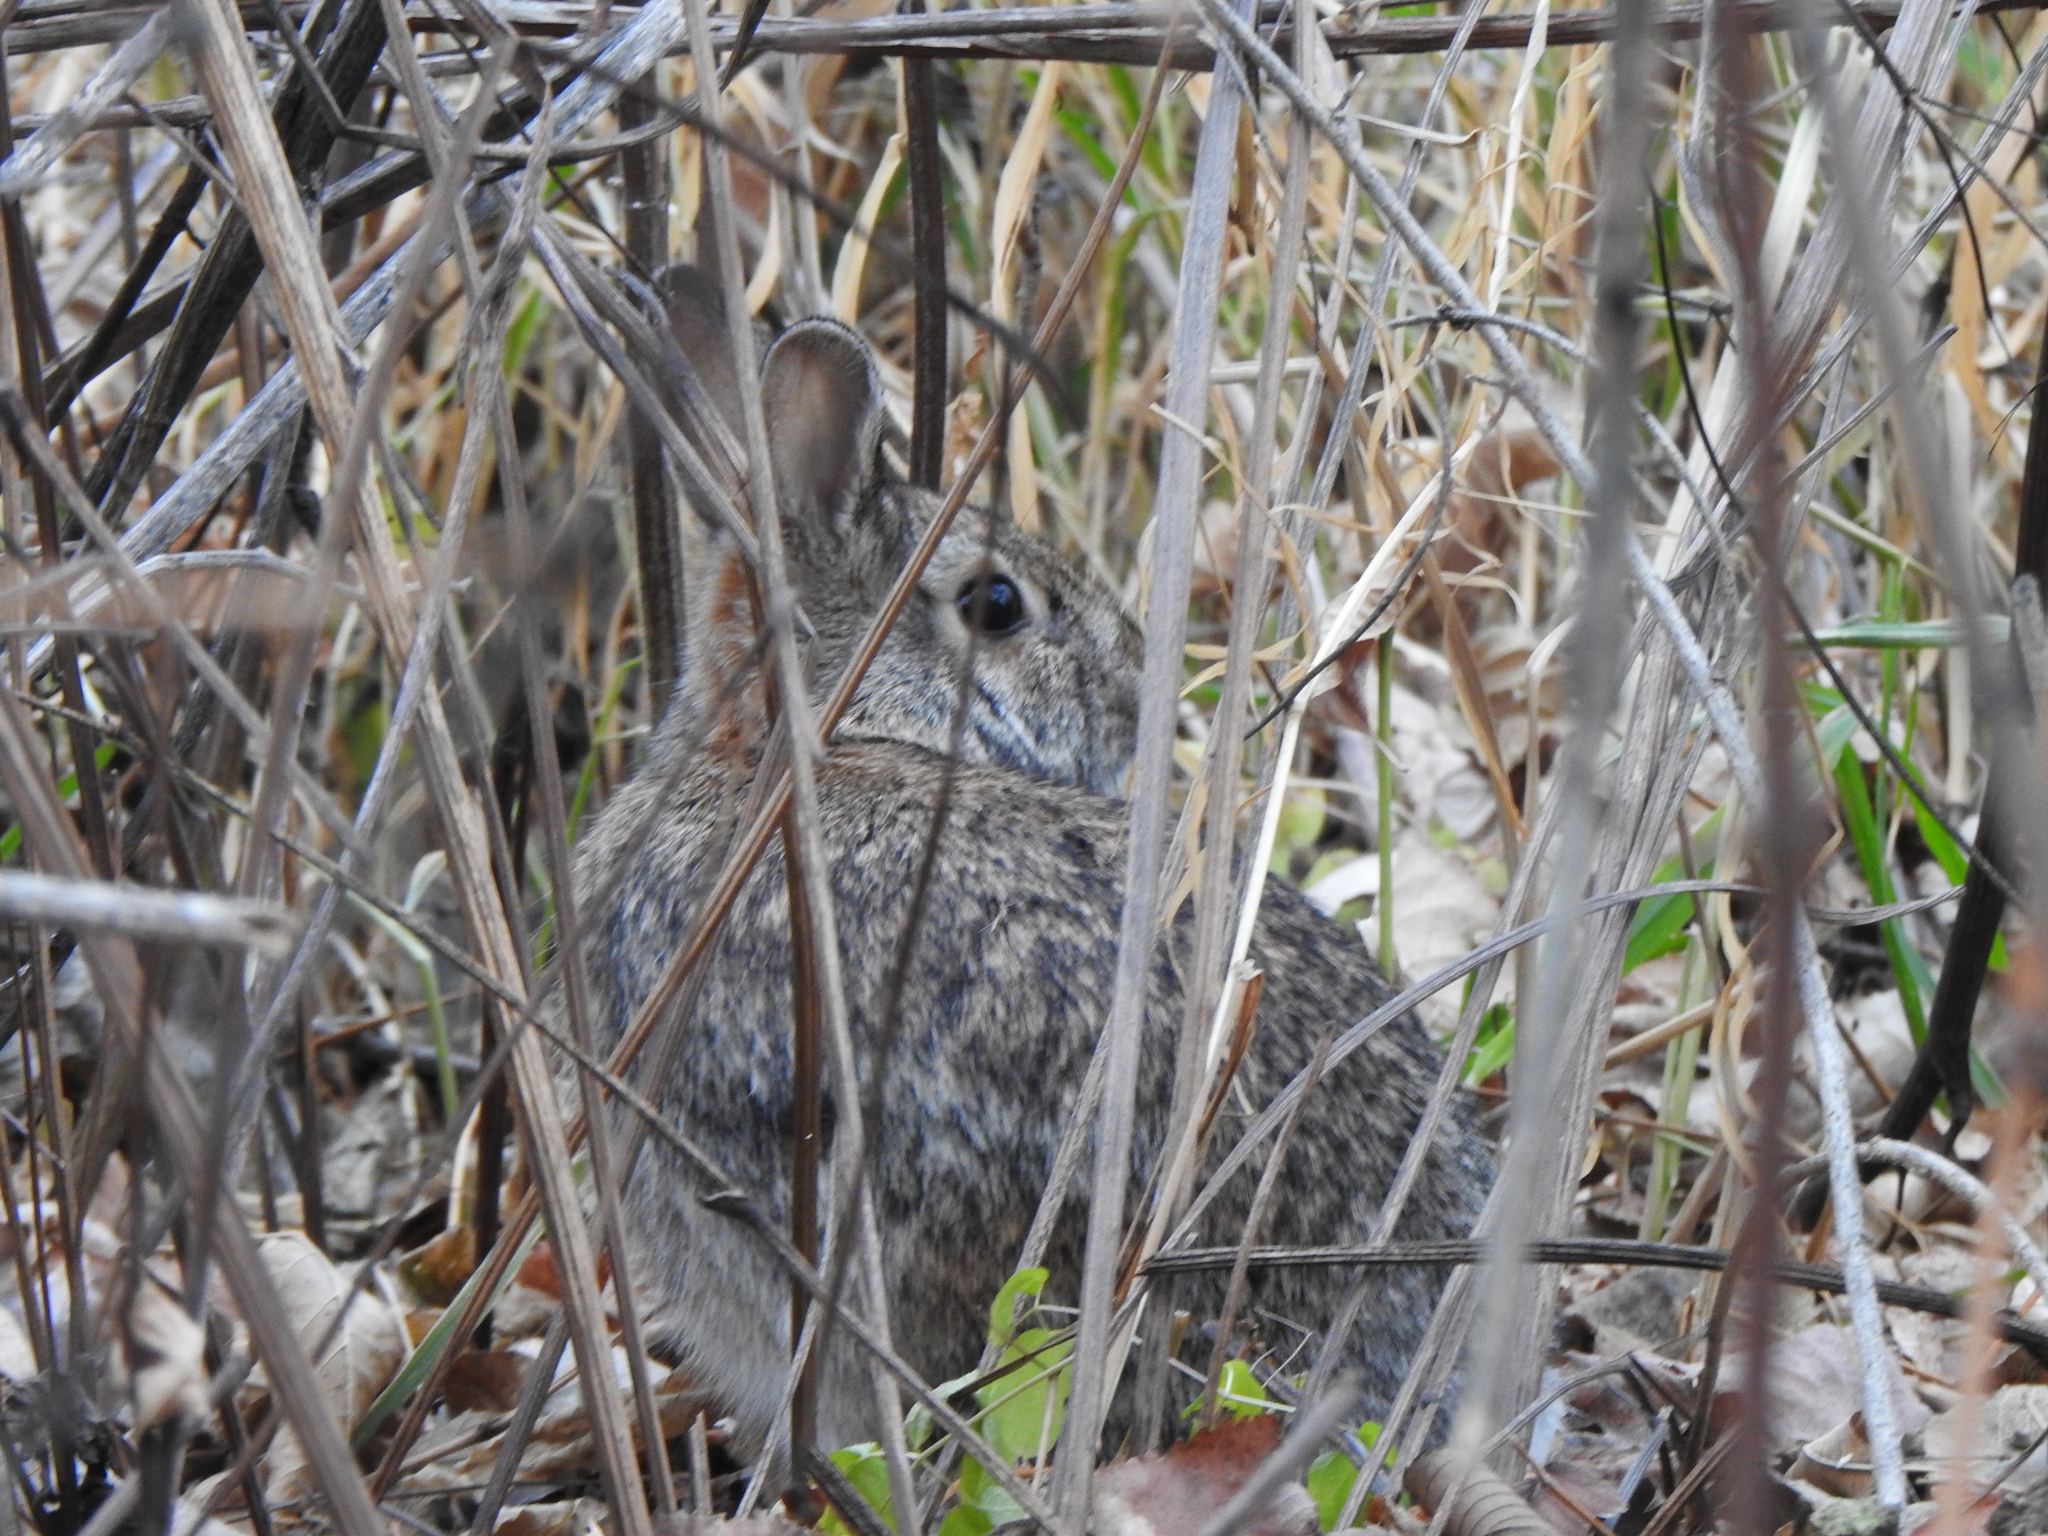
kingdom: Animalia
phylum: Chordata
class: Mammalia
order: Lagomorpha
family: Leporidae
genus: Sylvilagus
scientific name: Sylvilagus floridanus
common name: Eastern cottontail
